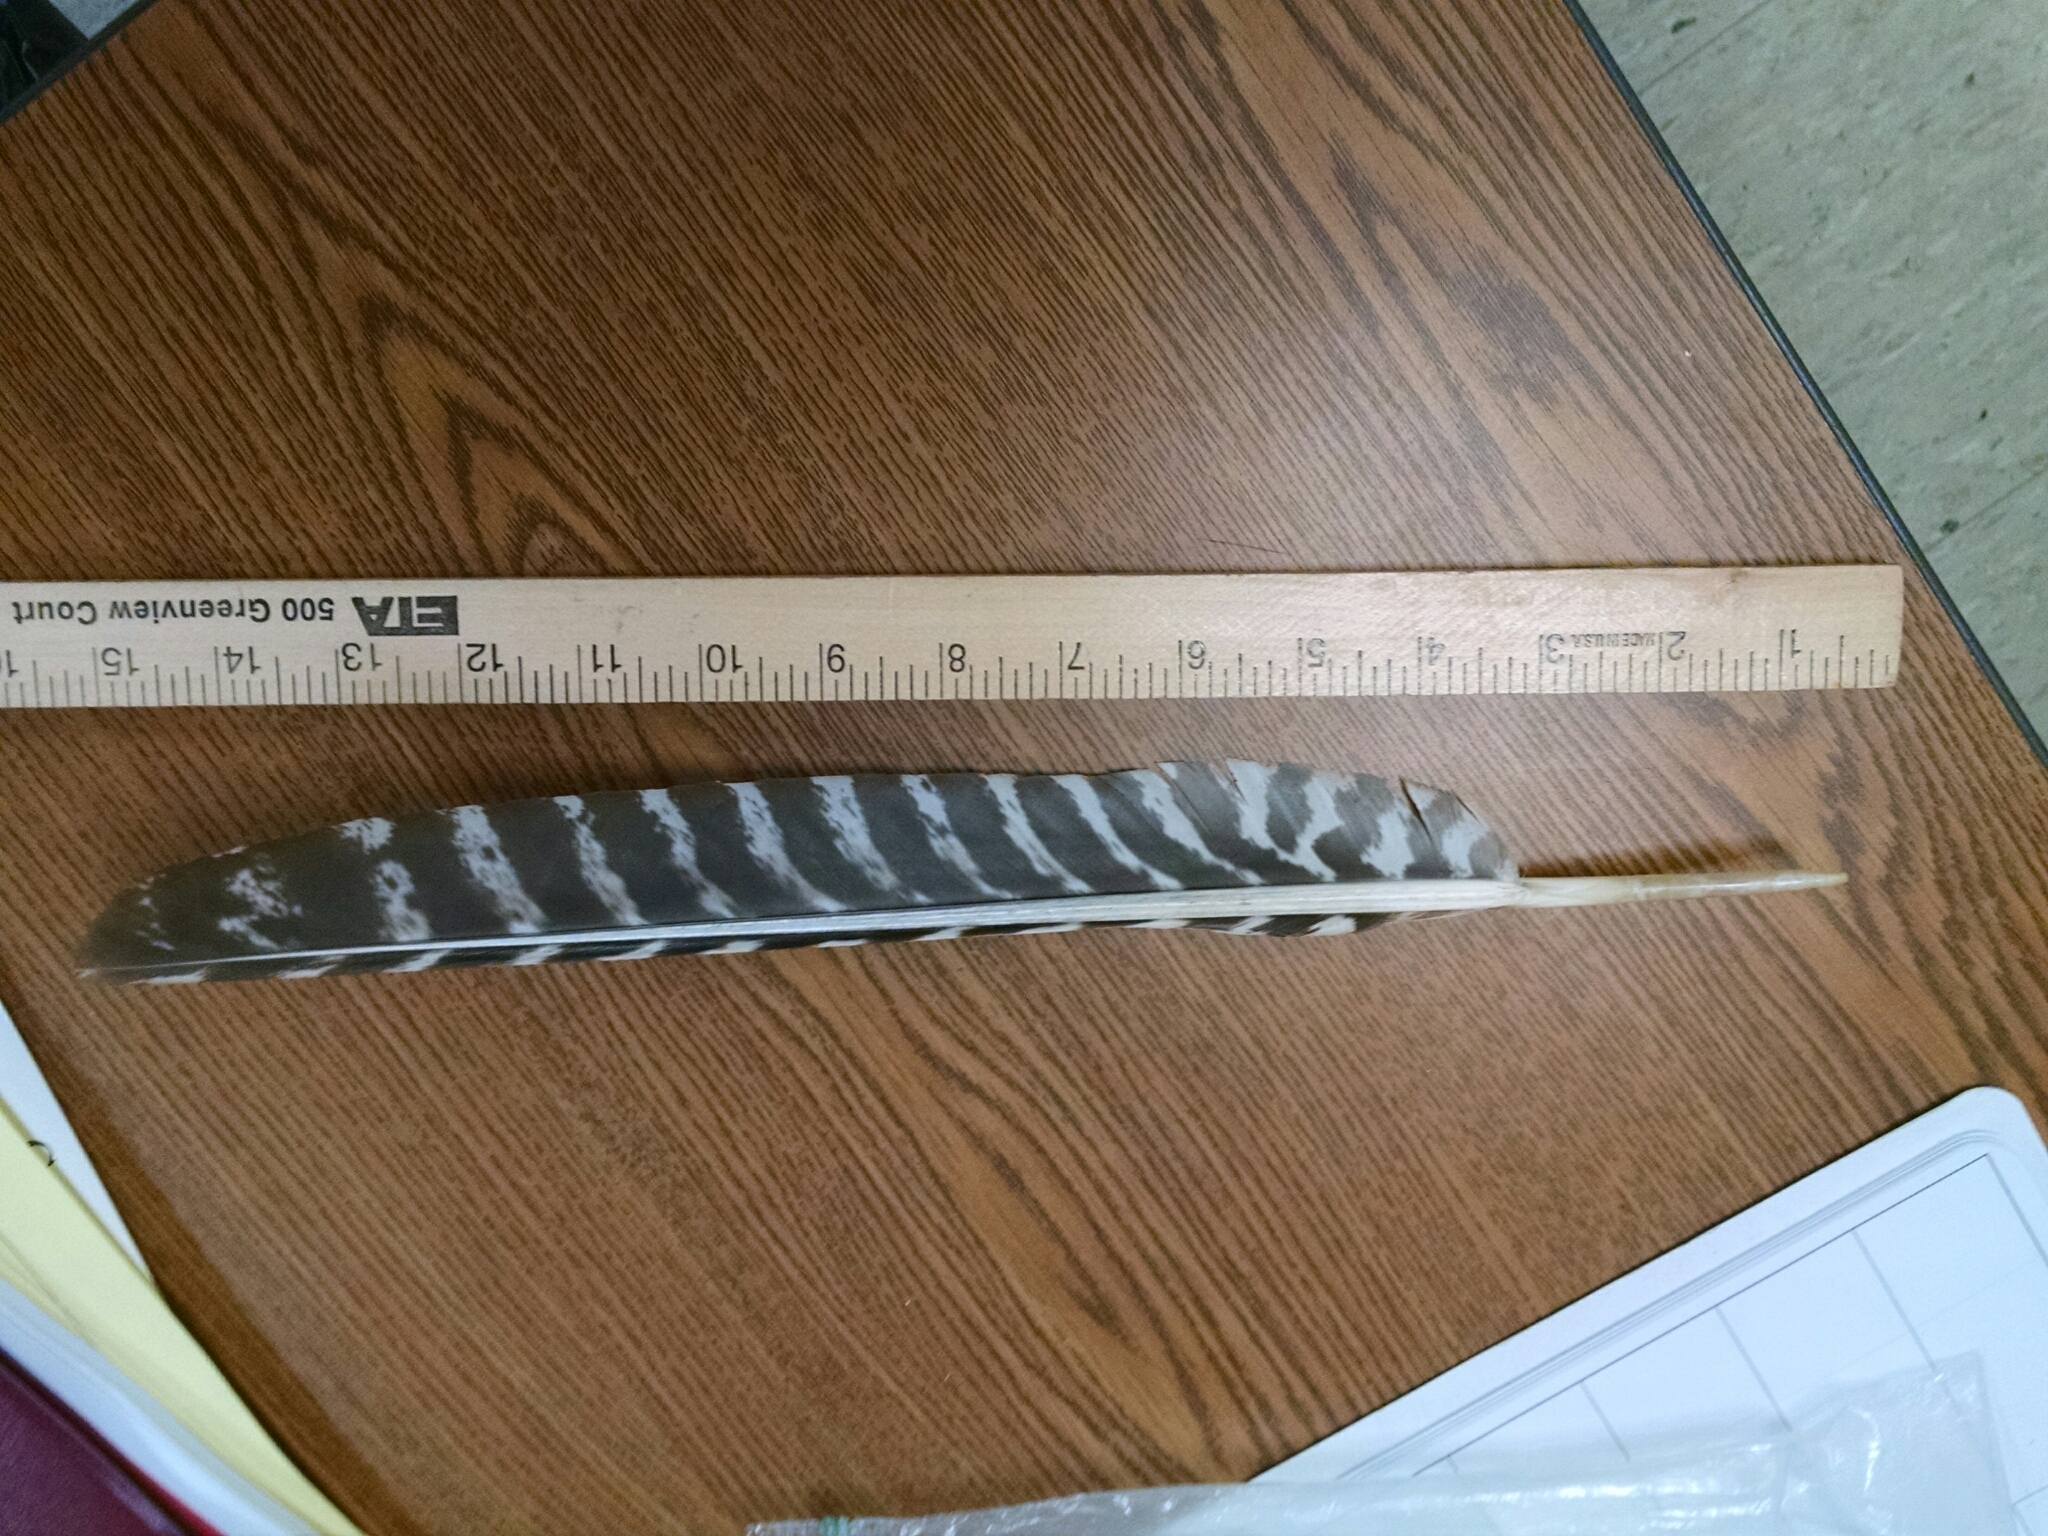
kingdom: Animalia
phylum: Chordata
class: Aves
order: Galliformes
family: Phasianidae
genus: Meleagris
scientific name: Meleagris gallopavo
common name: Wild turkey
